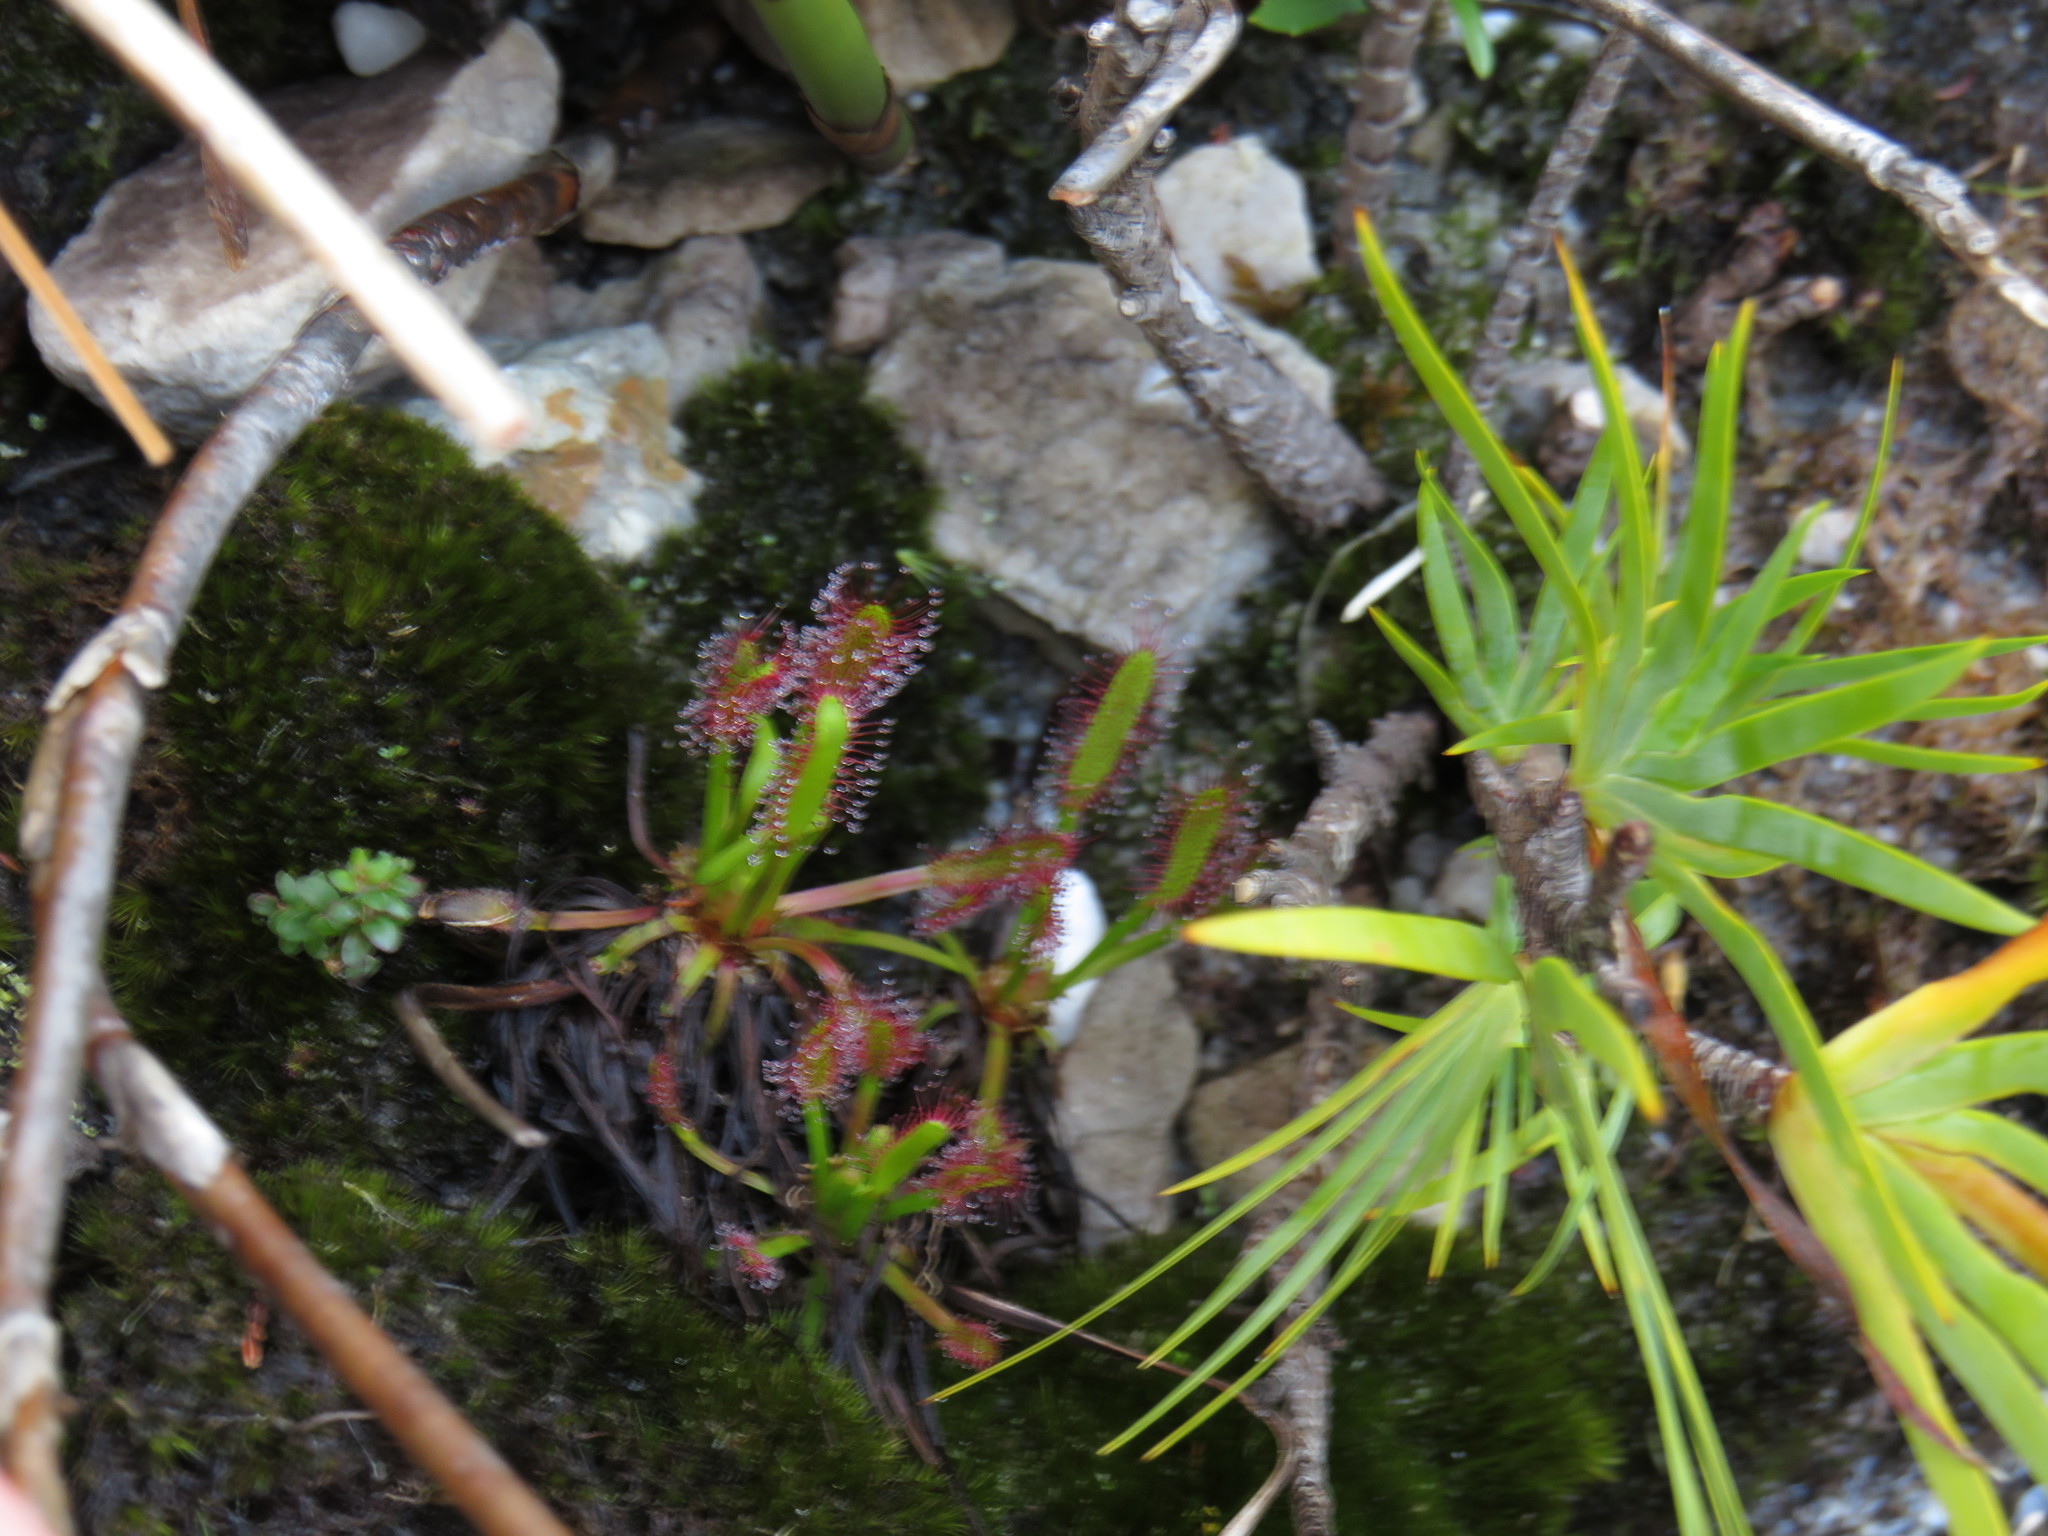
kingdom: Plantae
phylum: Tracheophyta
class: Magnoliopsida
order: Caryophyllales
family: Droseraceae
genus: Drosera
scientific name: Drosera capensis
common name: Cape sundew
